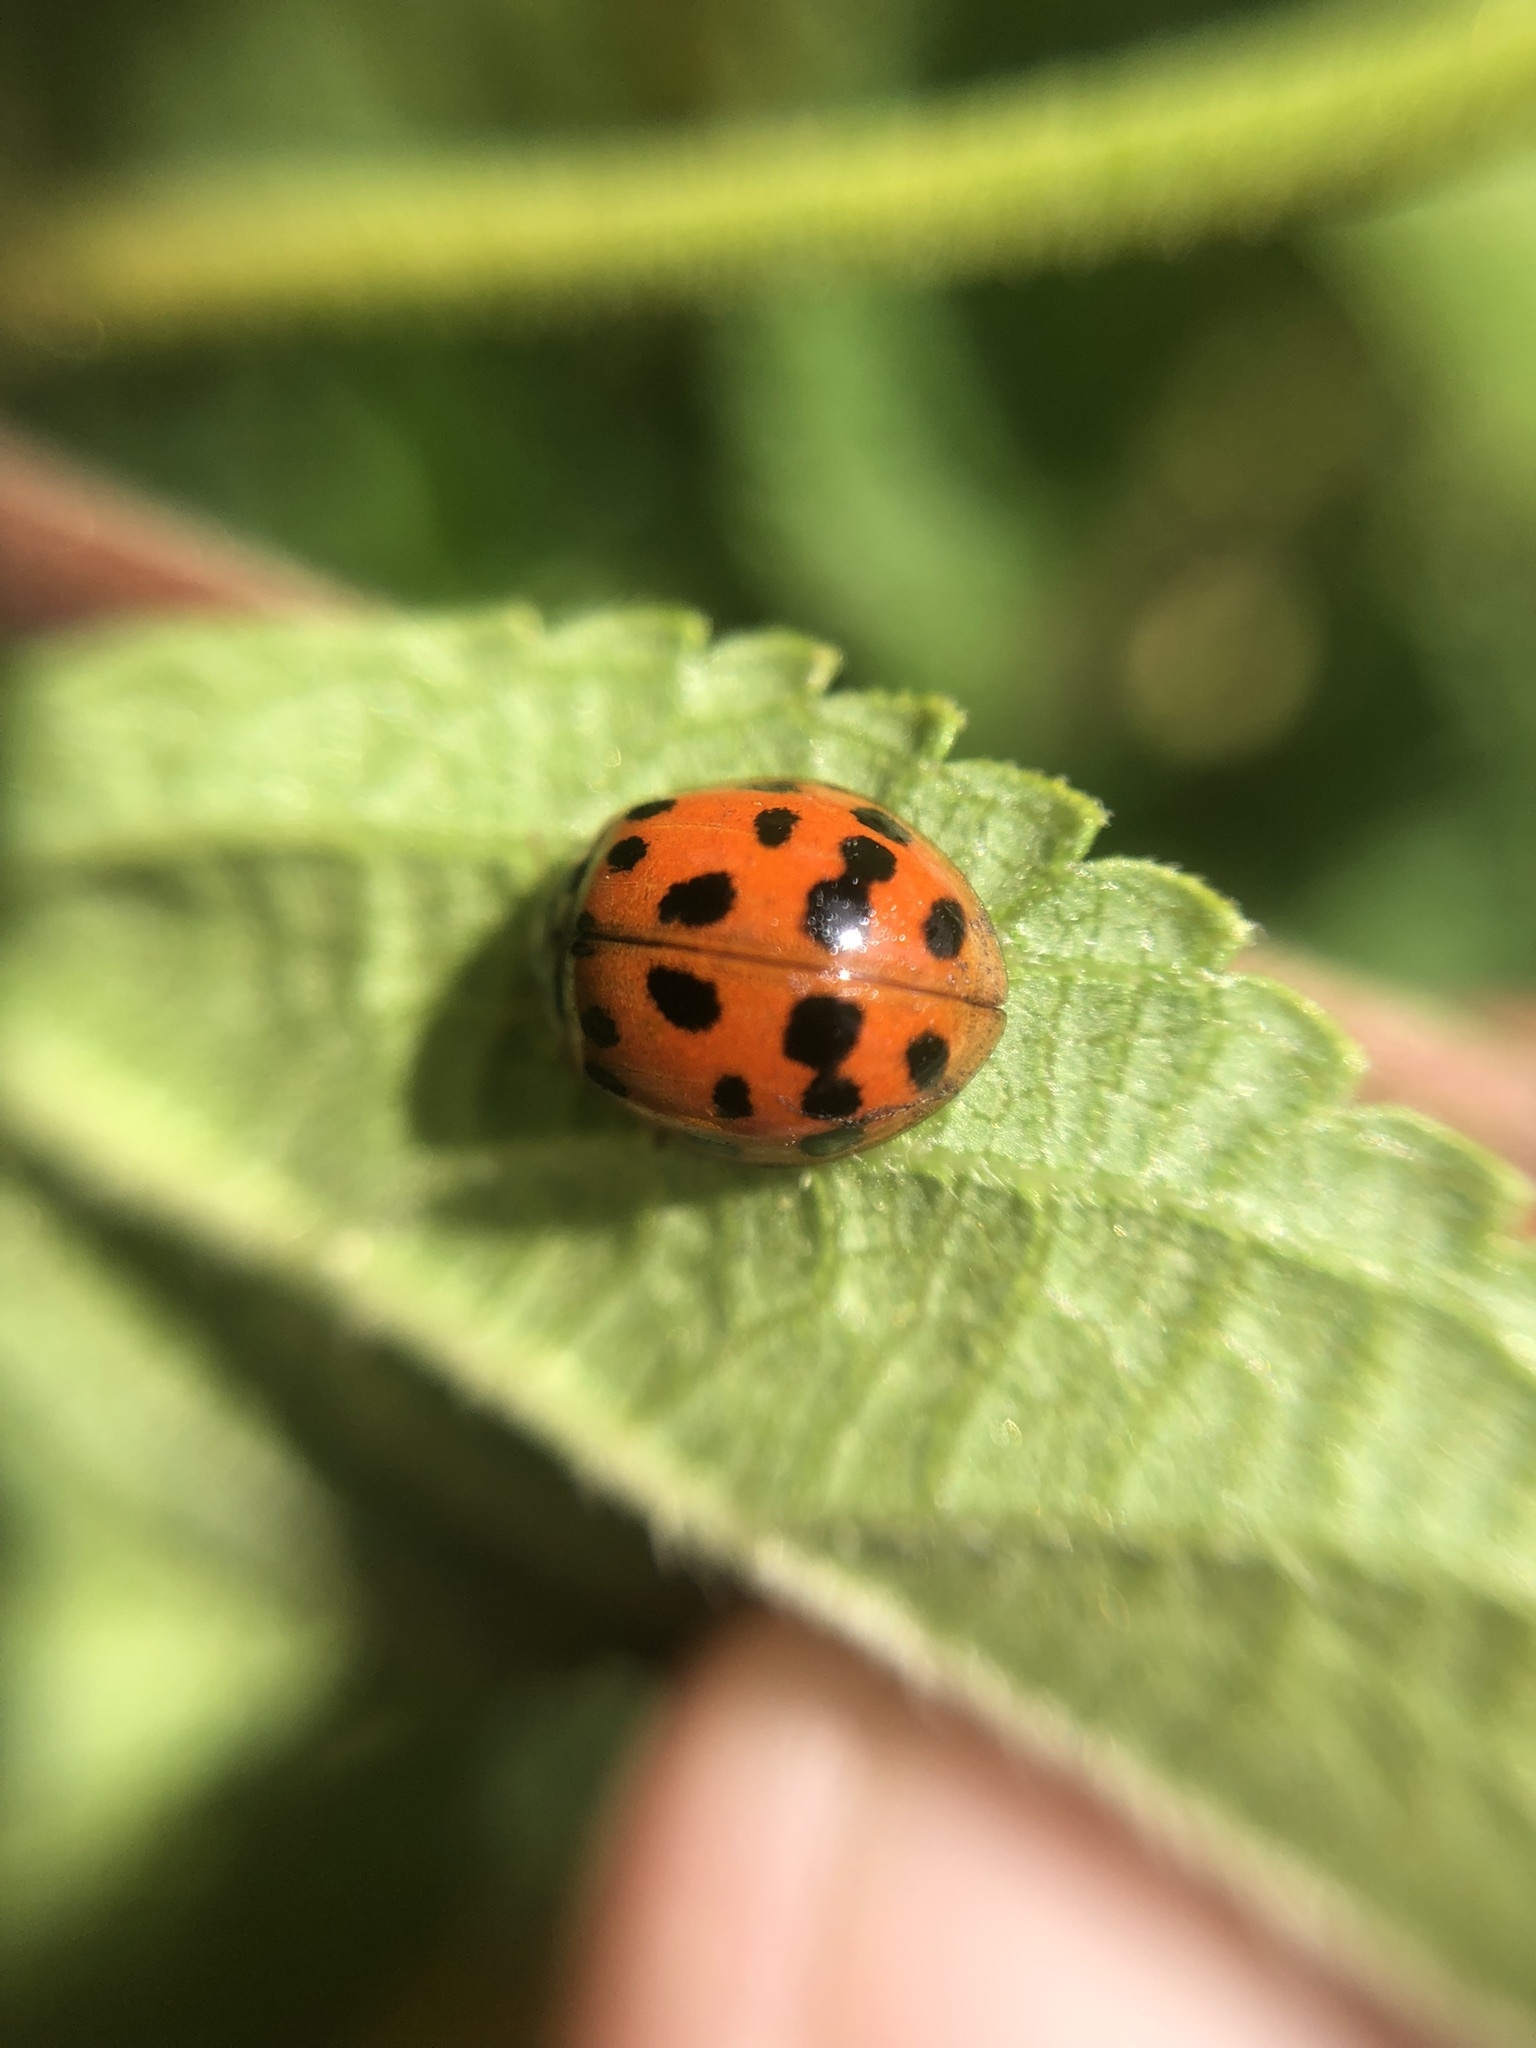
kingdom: Animalia
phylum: Arthropoda
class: Insecta
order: Coleoptera
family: Coccinellidae
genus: Harmonia
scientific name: Harmonia axyridis
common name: Harlequin ladybird
